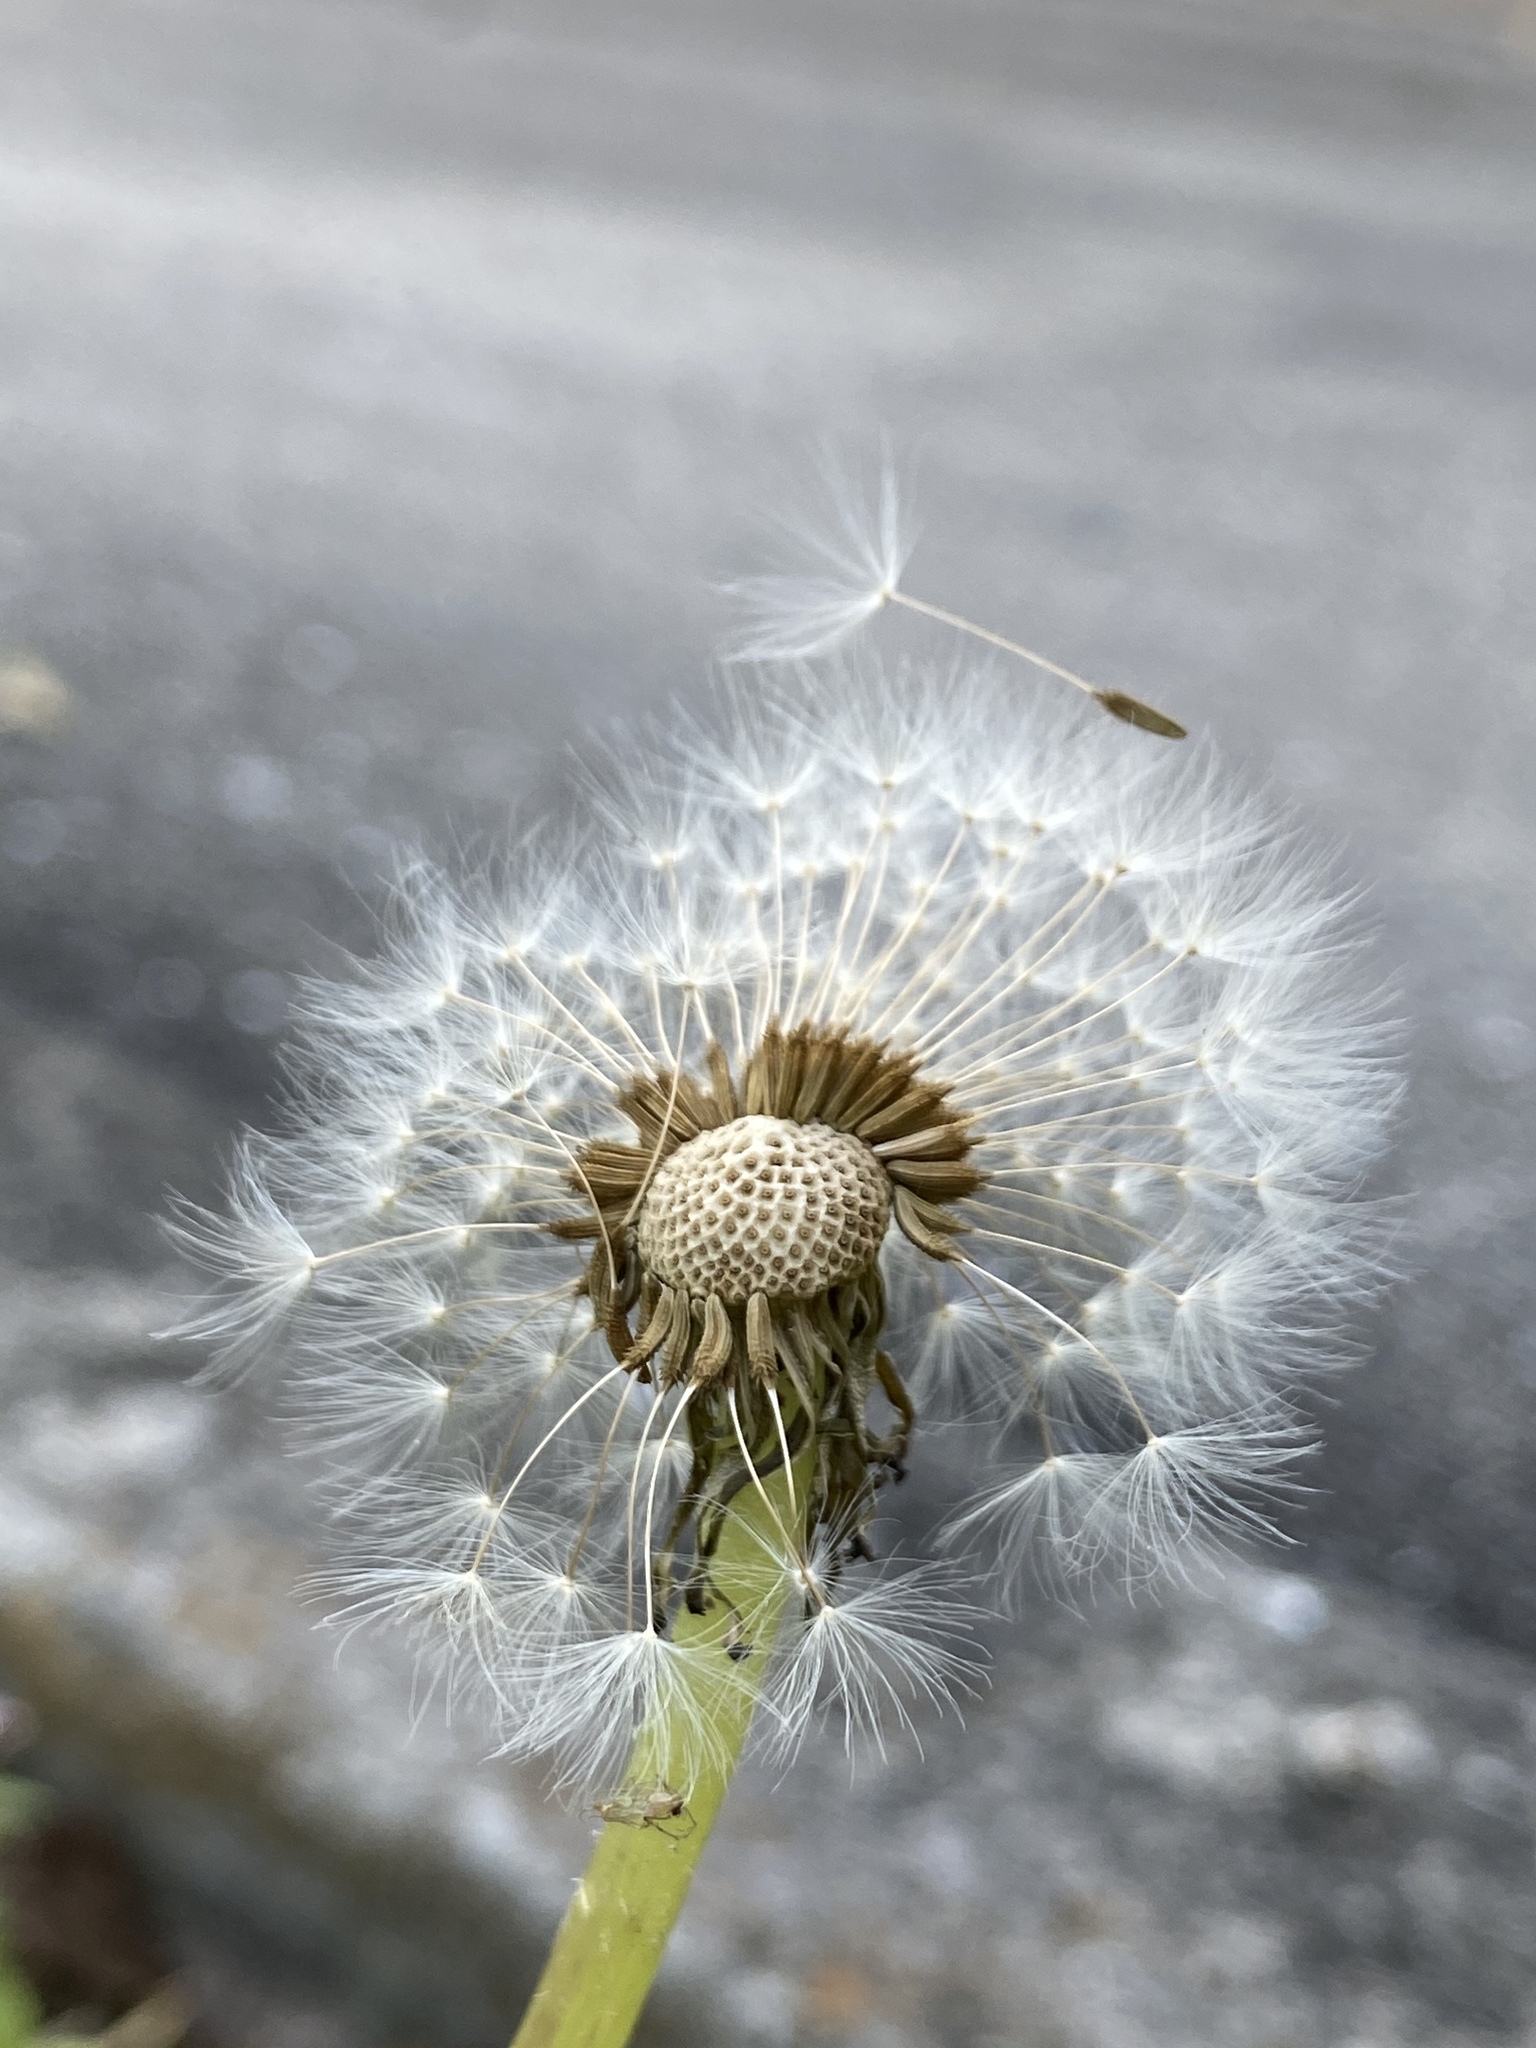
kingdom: Plantae
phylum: Tracheophyta
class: Magnoliopsida
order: Asterales
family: Asteraceae
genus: Taraxacum
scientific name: Taraxacum officinale
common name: Common dandelion
